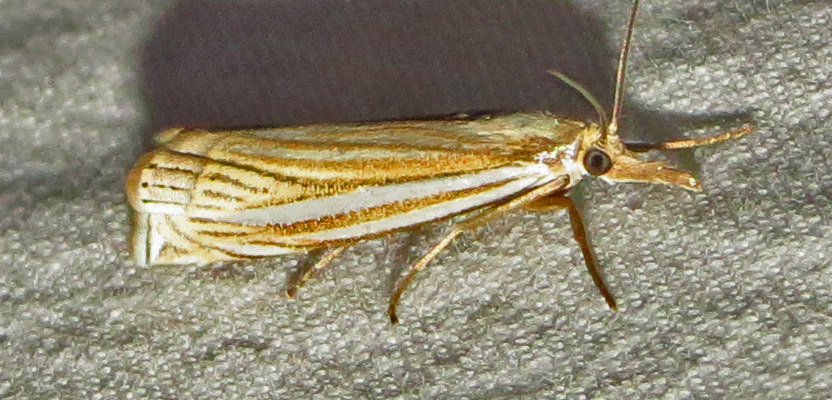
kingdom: Animalia
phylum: Arthropoda
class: Insecta
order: Lepidoptera
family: Crambidae
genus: Crambus
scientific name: Crambus laqueatellus
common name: Eastern grass-veneer
